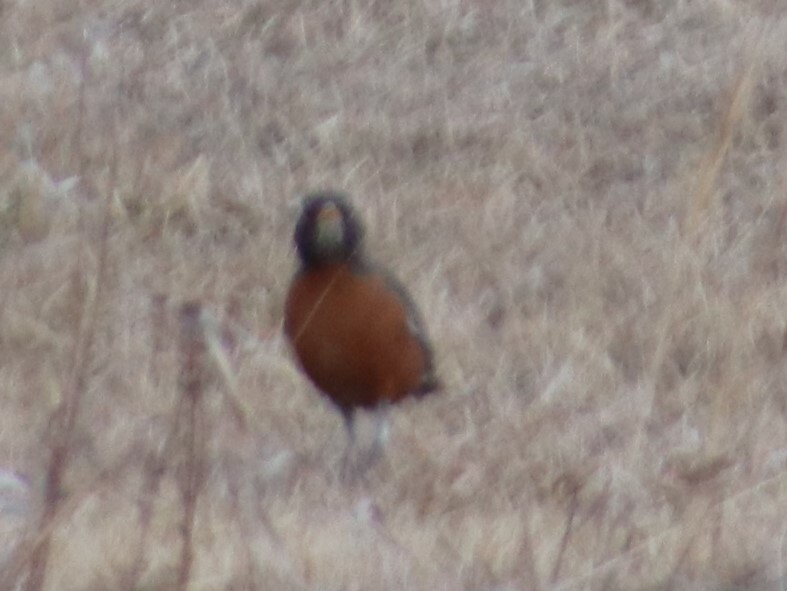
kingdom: Animalia
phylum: Chordata
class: Aves
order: Passeriformes
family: Turdidae
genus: Turdus
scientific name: Turdus migratorius
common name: American robin
